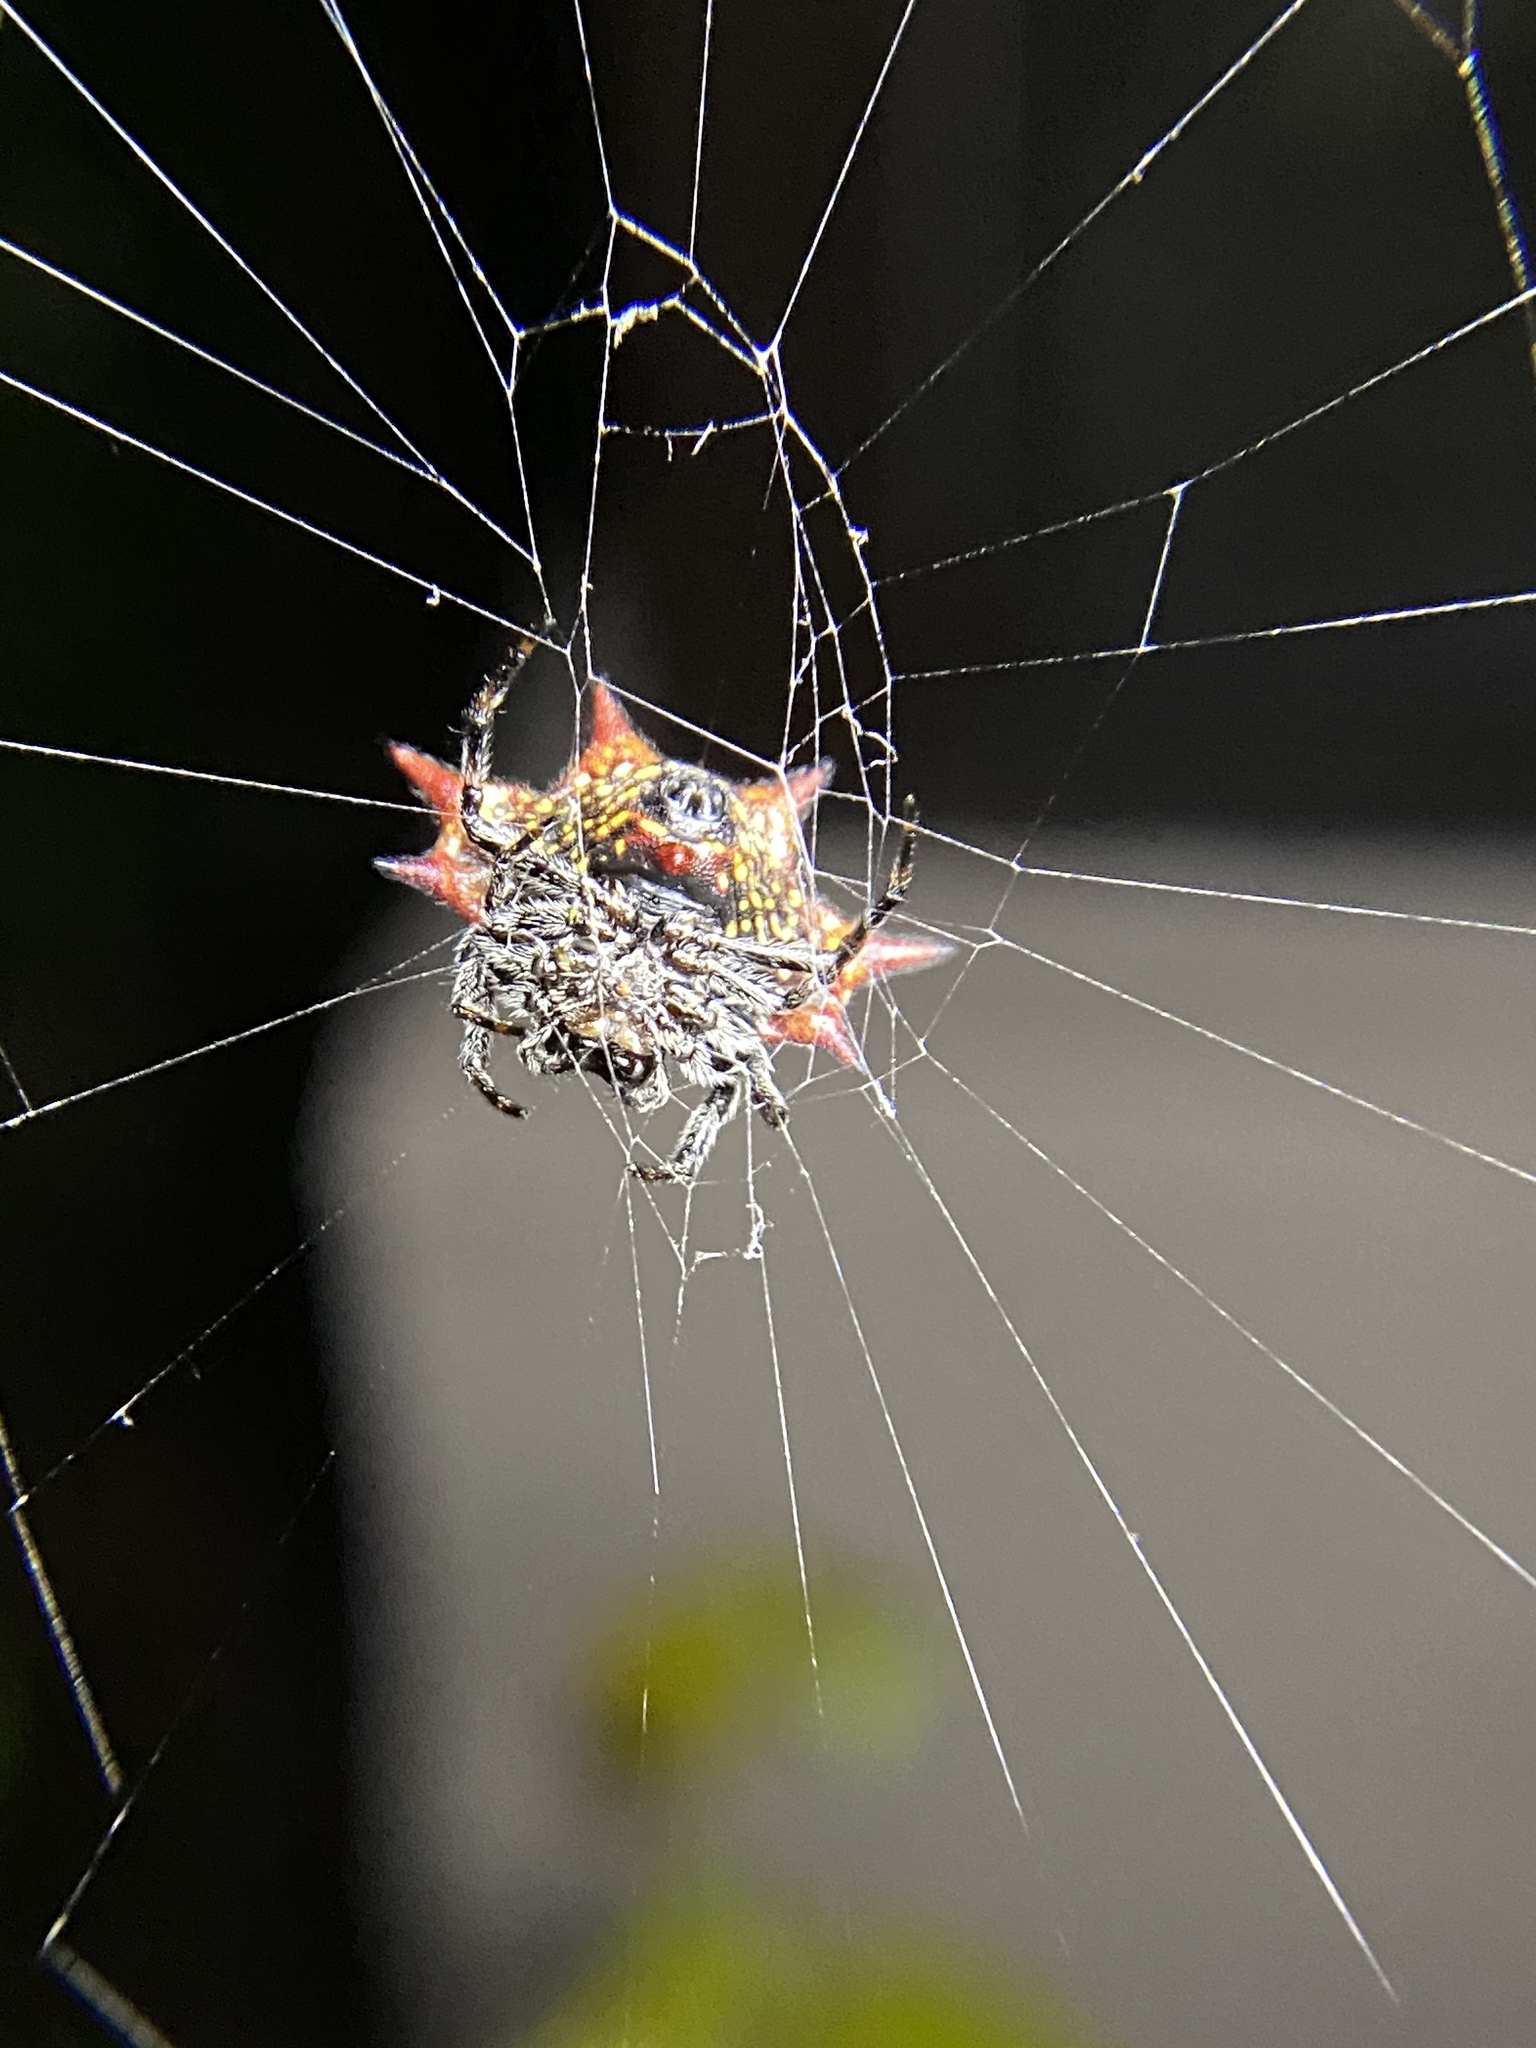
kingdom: Animalia
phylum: Arthropoda
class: Arachnida
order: Araneae
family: Araneidae
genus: Gasteracantha
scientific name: Gasteracantha cancriformis
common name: Orb weavers
